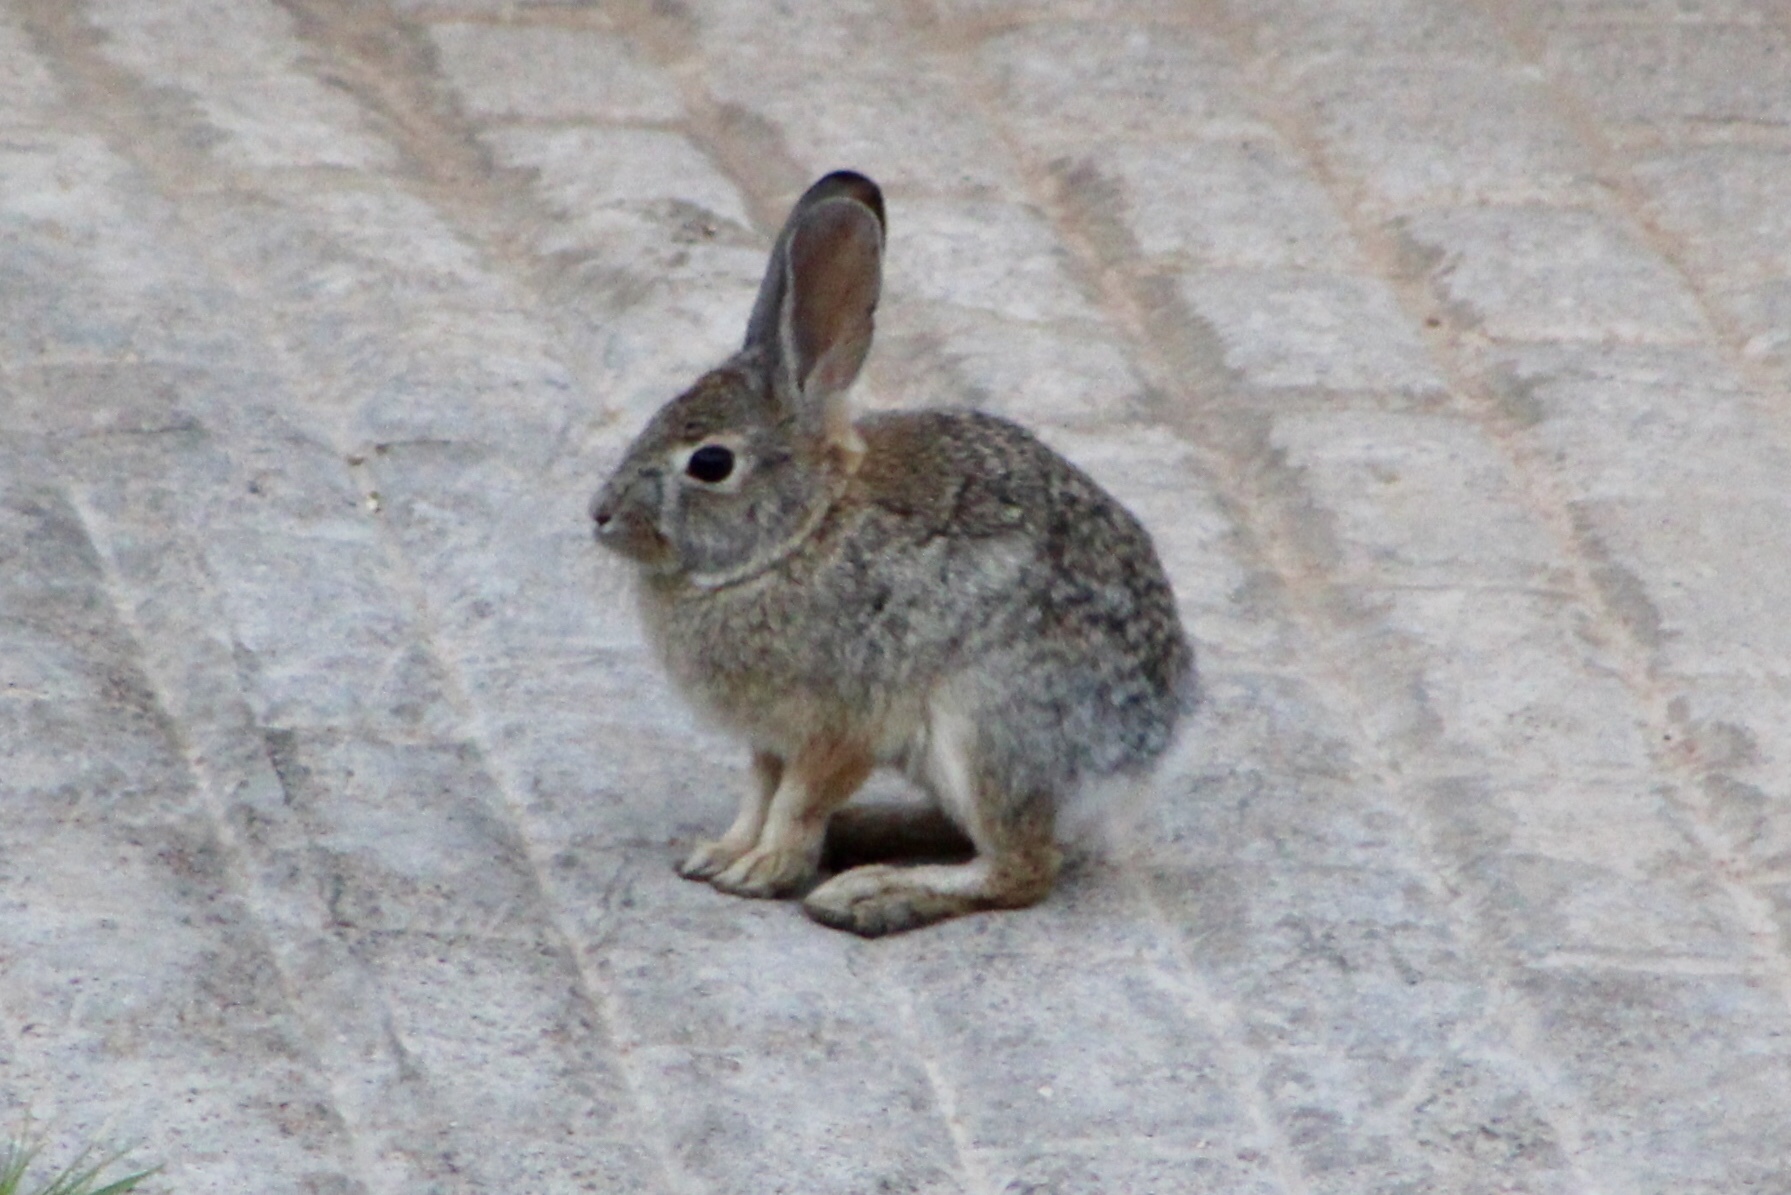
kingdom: Animalia
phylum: Chordata
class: Mammalia
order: Lagomorpha
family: Leporidae
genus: Sylvilagus
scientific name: Sylvilagus audubonii
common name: Desert cottontail
